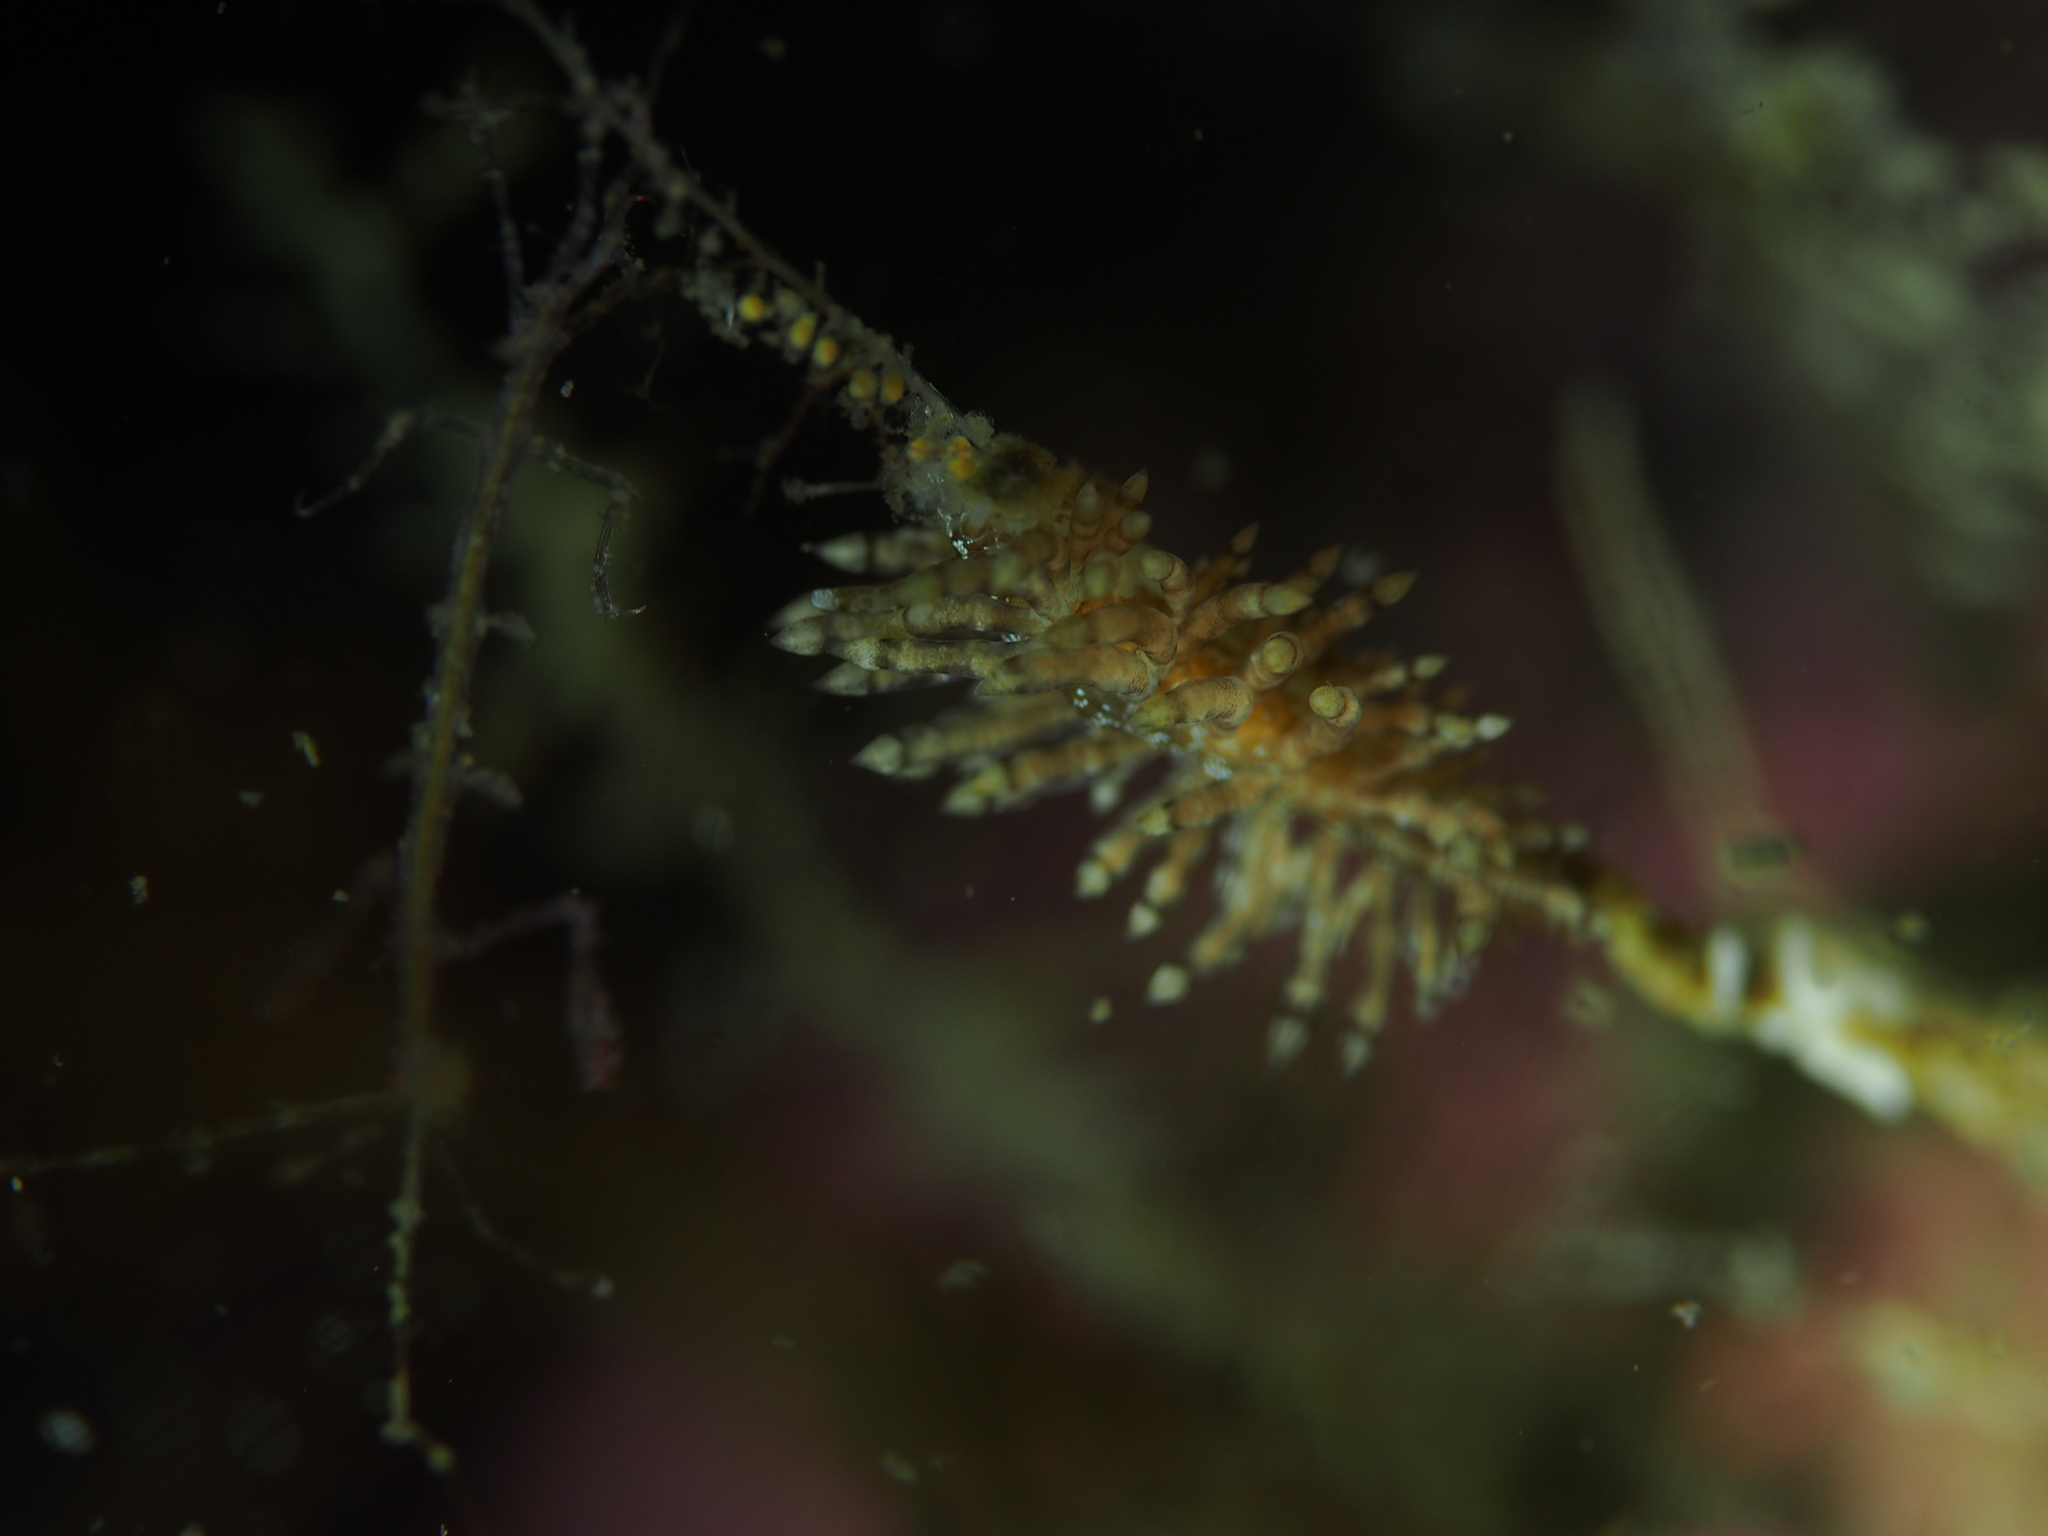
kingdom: Animalia
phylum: Mollusca
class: Gastropoda
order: Nudibranchia
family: Eubranchidae
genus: Eubranchus
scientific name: Eubranchus vittatus
